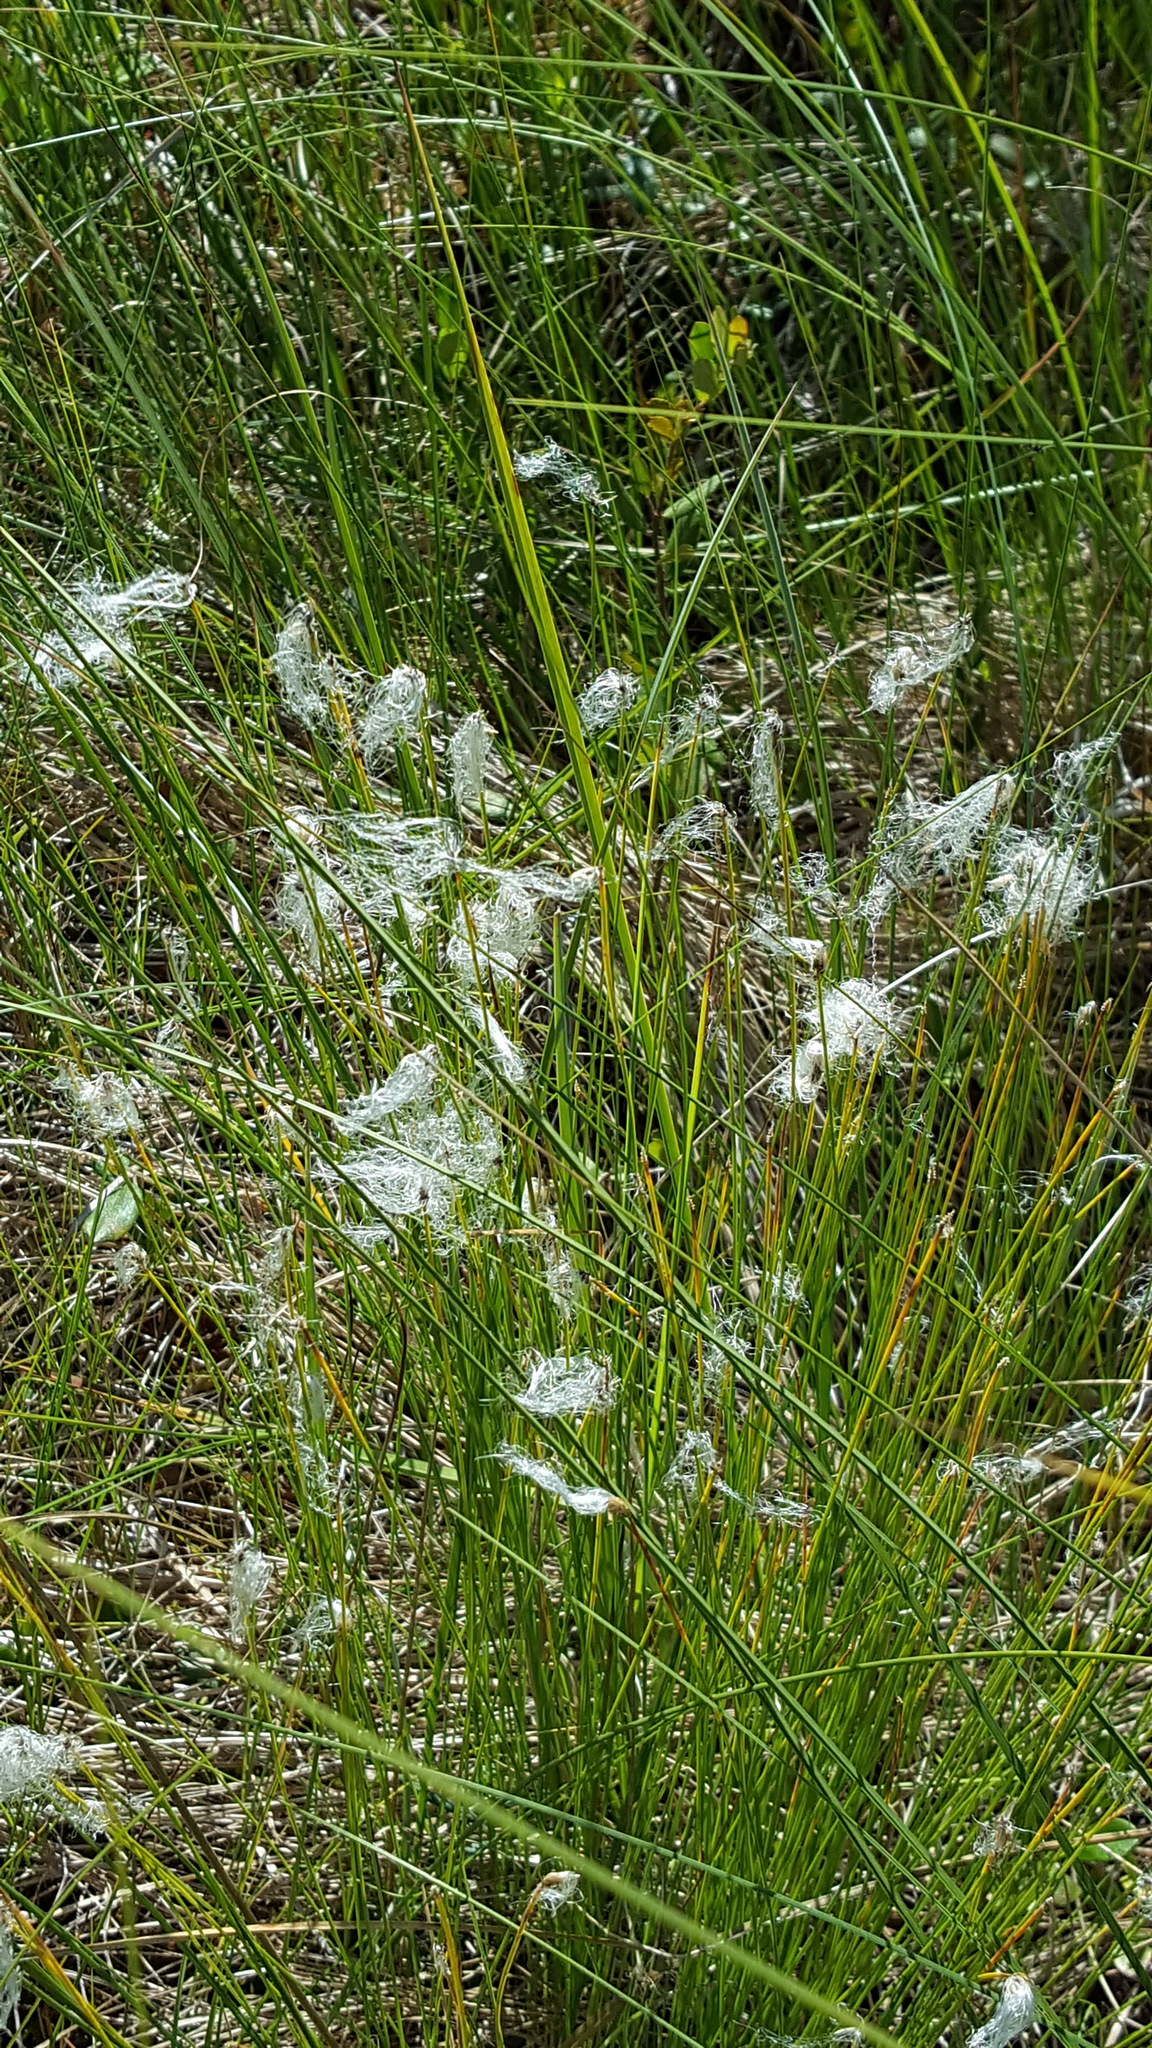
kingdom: Plantae
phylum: Tracheophyta
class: Liliopsida
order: Poales
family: Cyperaceae
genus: Trichophorum
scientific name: Trichophorum alpinum
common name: Alpine bulrush
